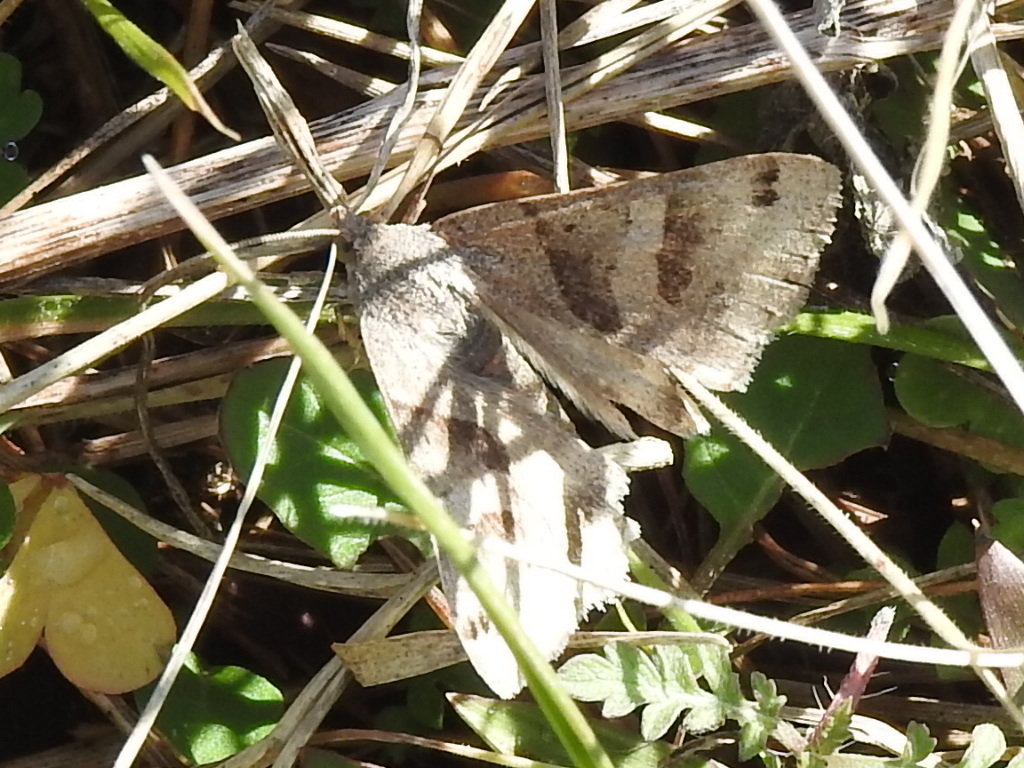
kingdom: Animalia
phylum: Arthropoda
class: Insecta
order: Lepidoptera
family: Erebidae
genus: Caenurgina
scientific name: Caenurgina erechtea
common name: Forage looper moth
